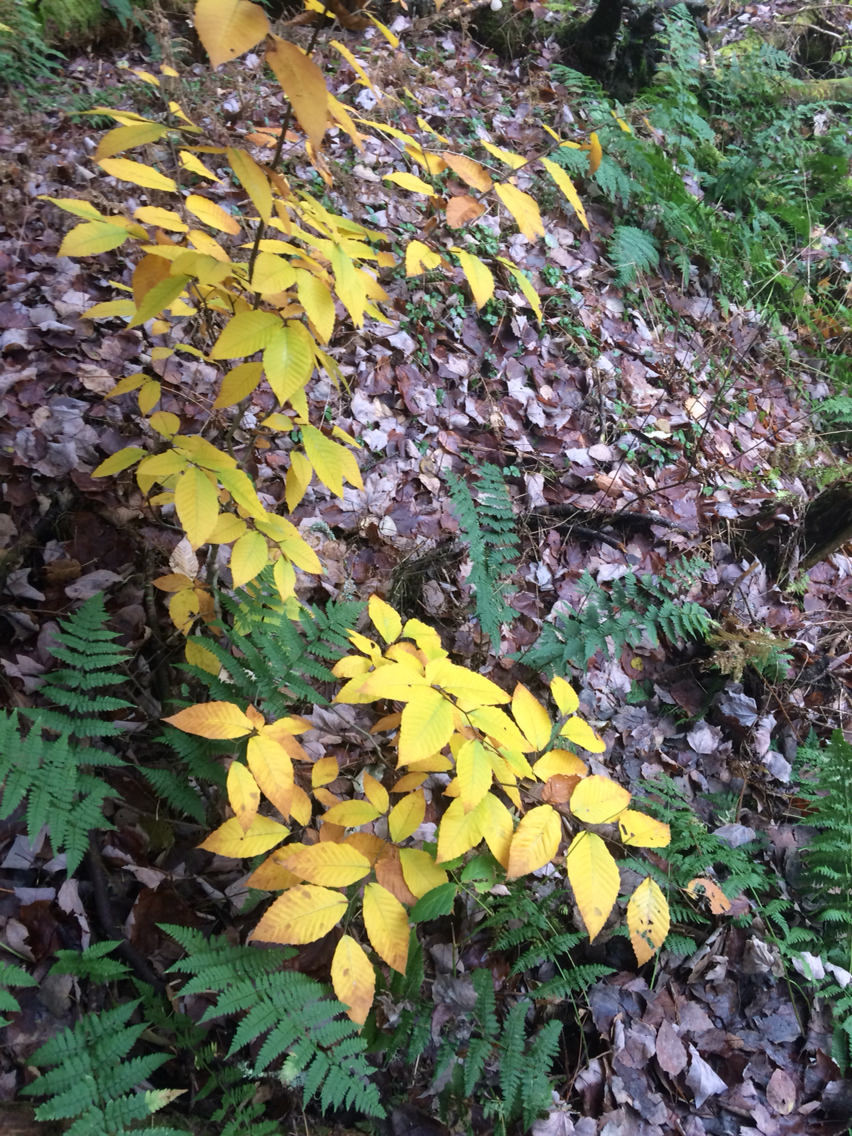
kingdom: Plantae
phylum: Tracheophyta
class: Magnoliopsida
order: Fagales
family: Fagaceae
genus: Fagus
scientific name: Fagus grandifolia
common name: American beech
